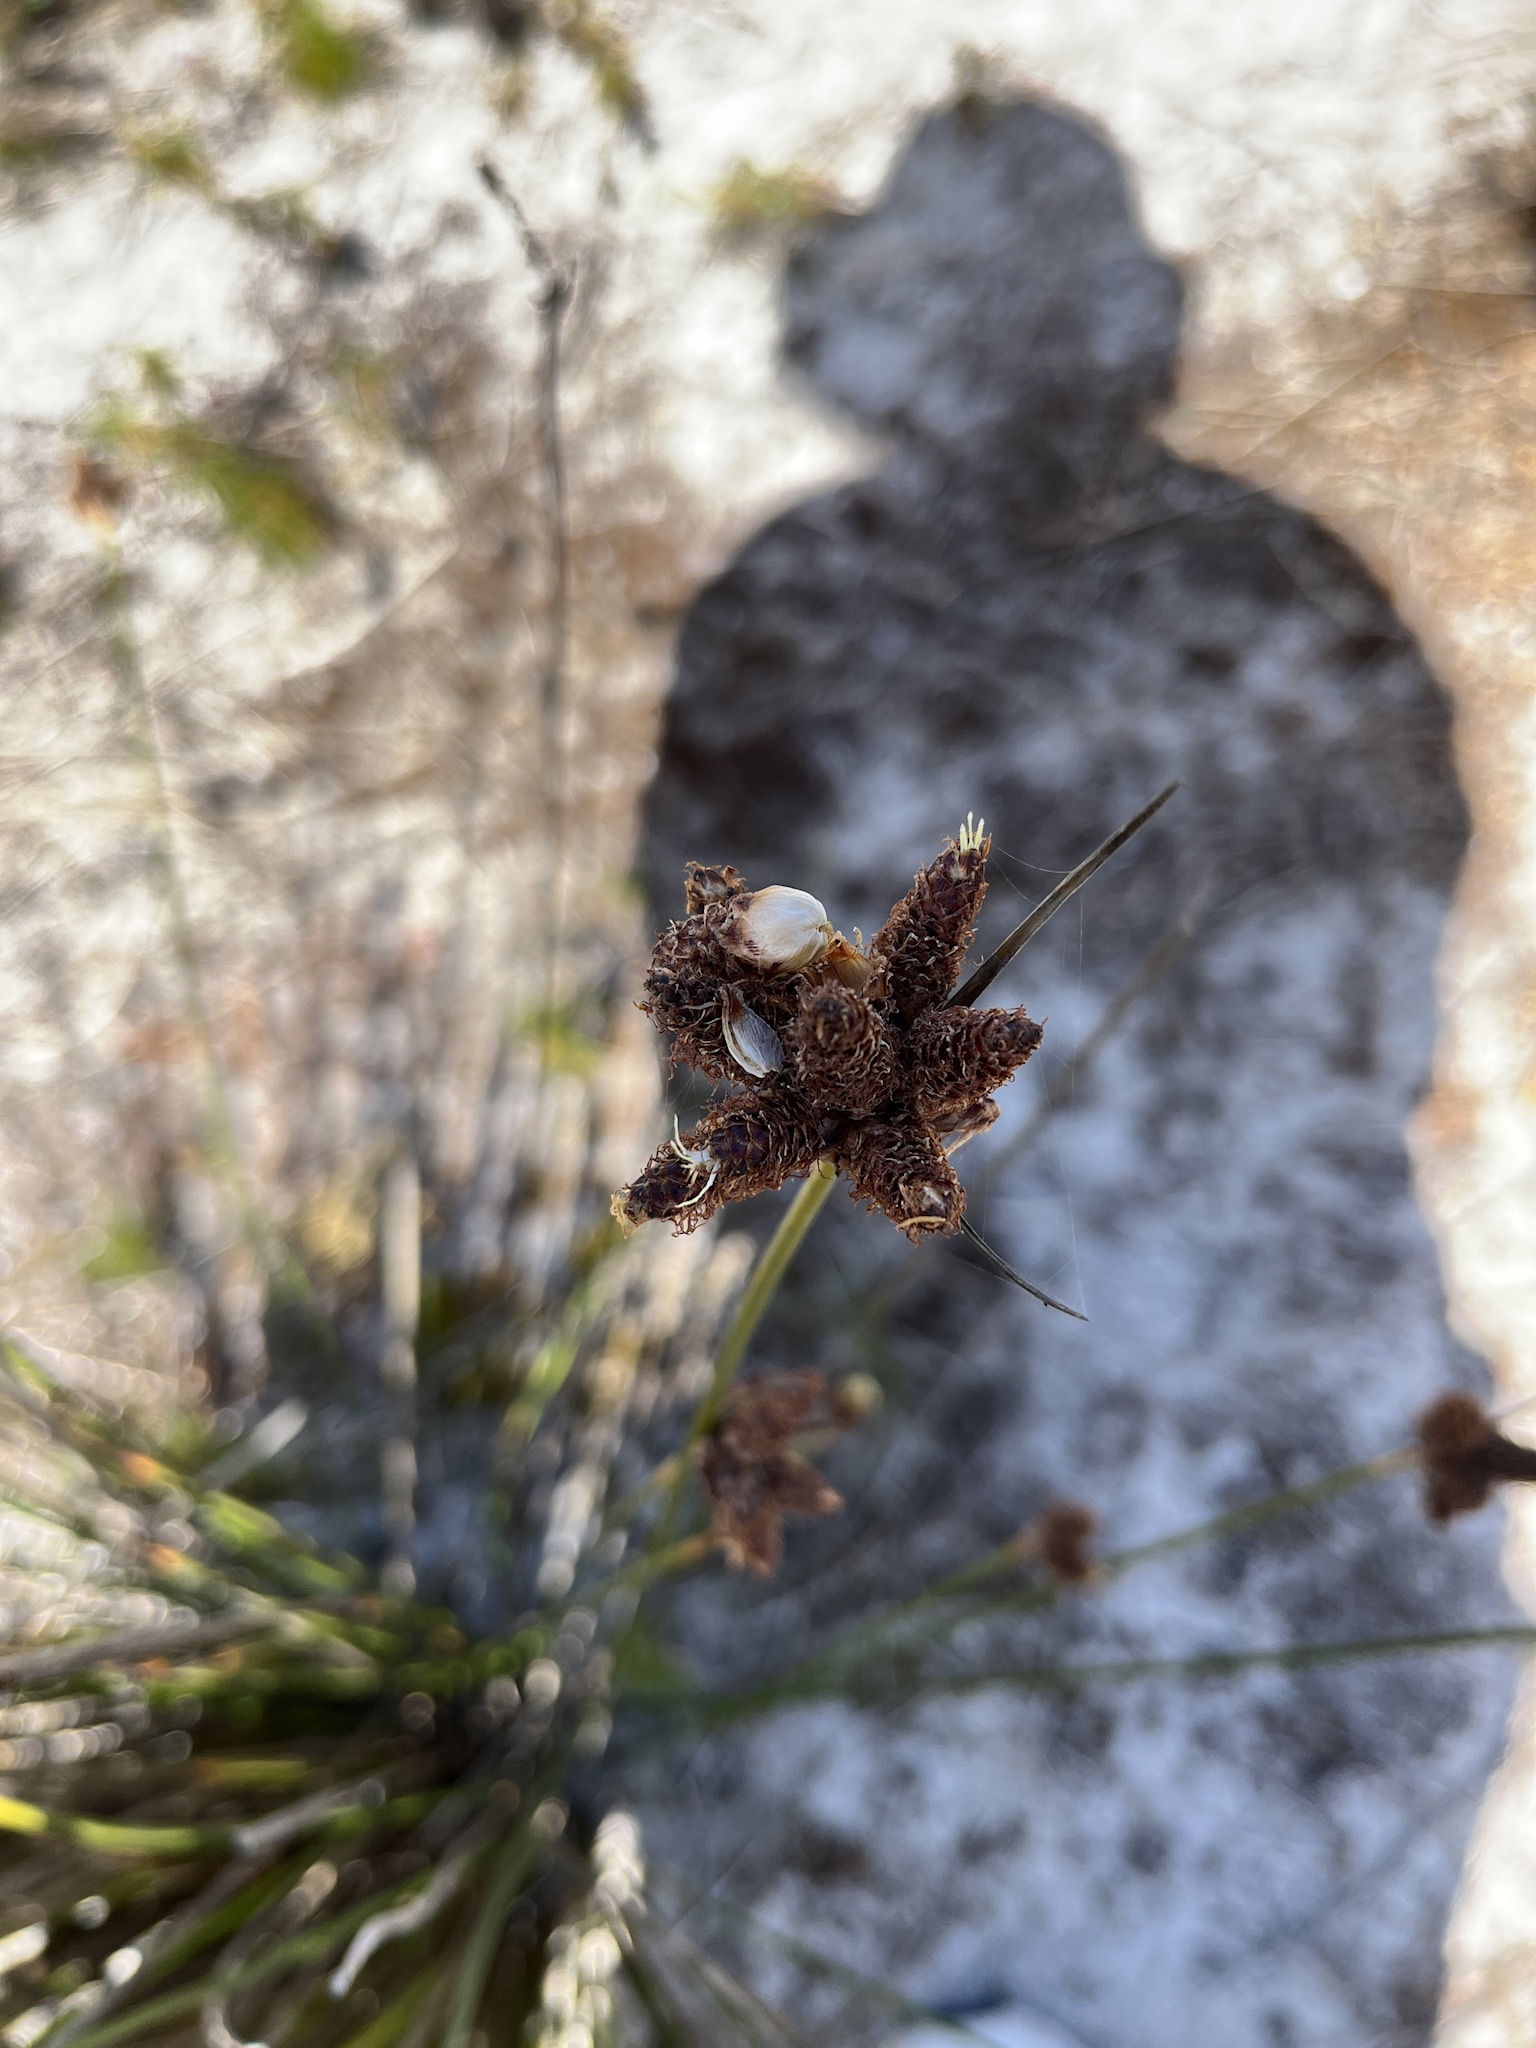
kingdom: Plantae
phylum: Tracheophyta
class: Liliopsida
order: Poales
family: Cyperaceae
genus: Hellmuthia
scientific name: Hellmuthia membranacea
